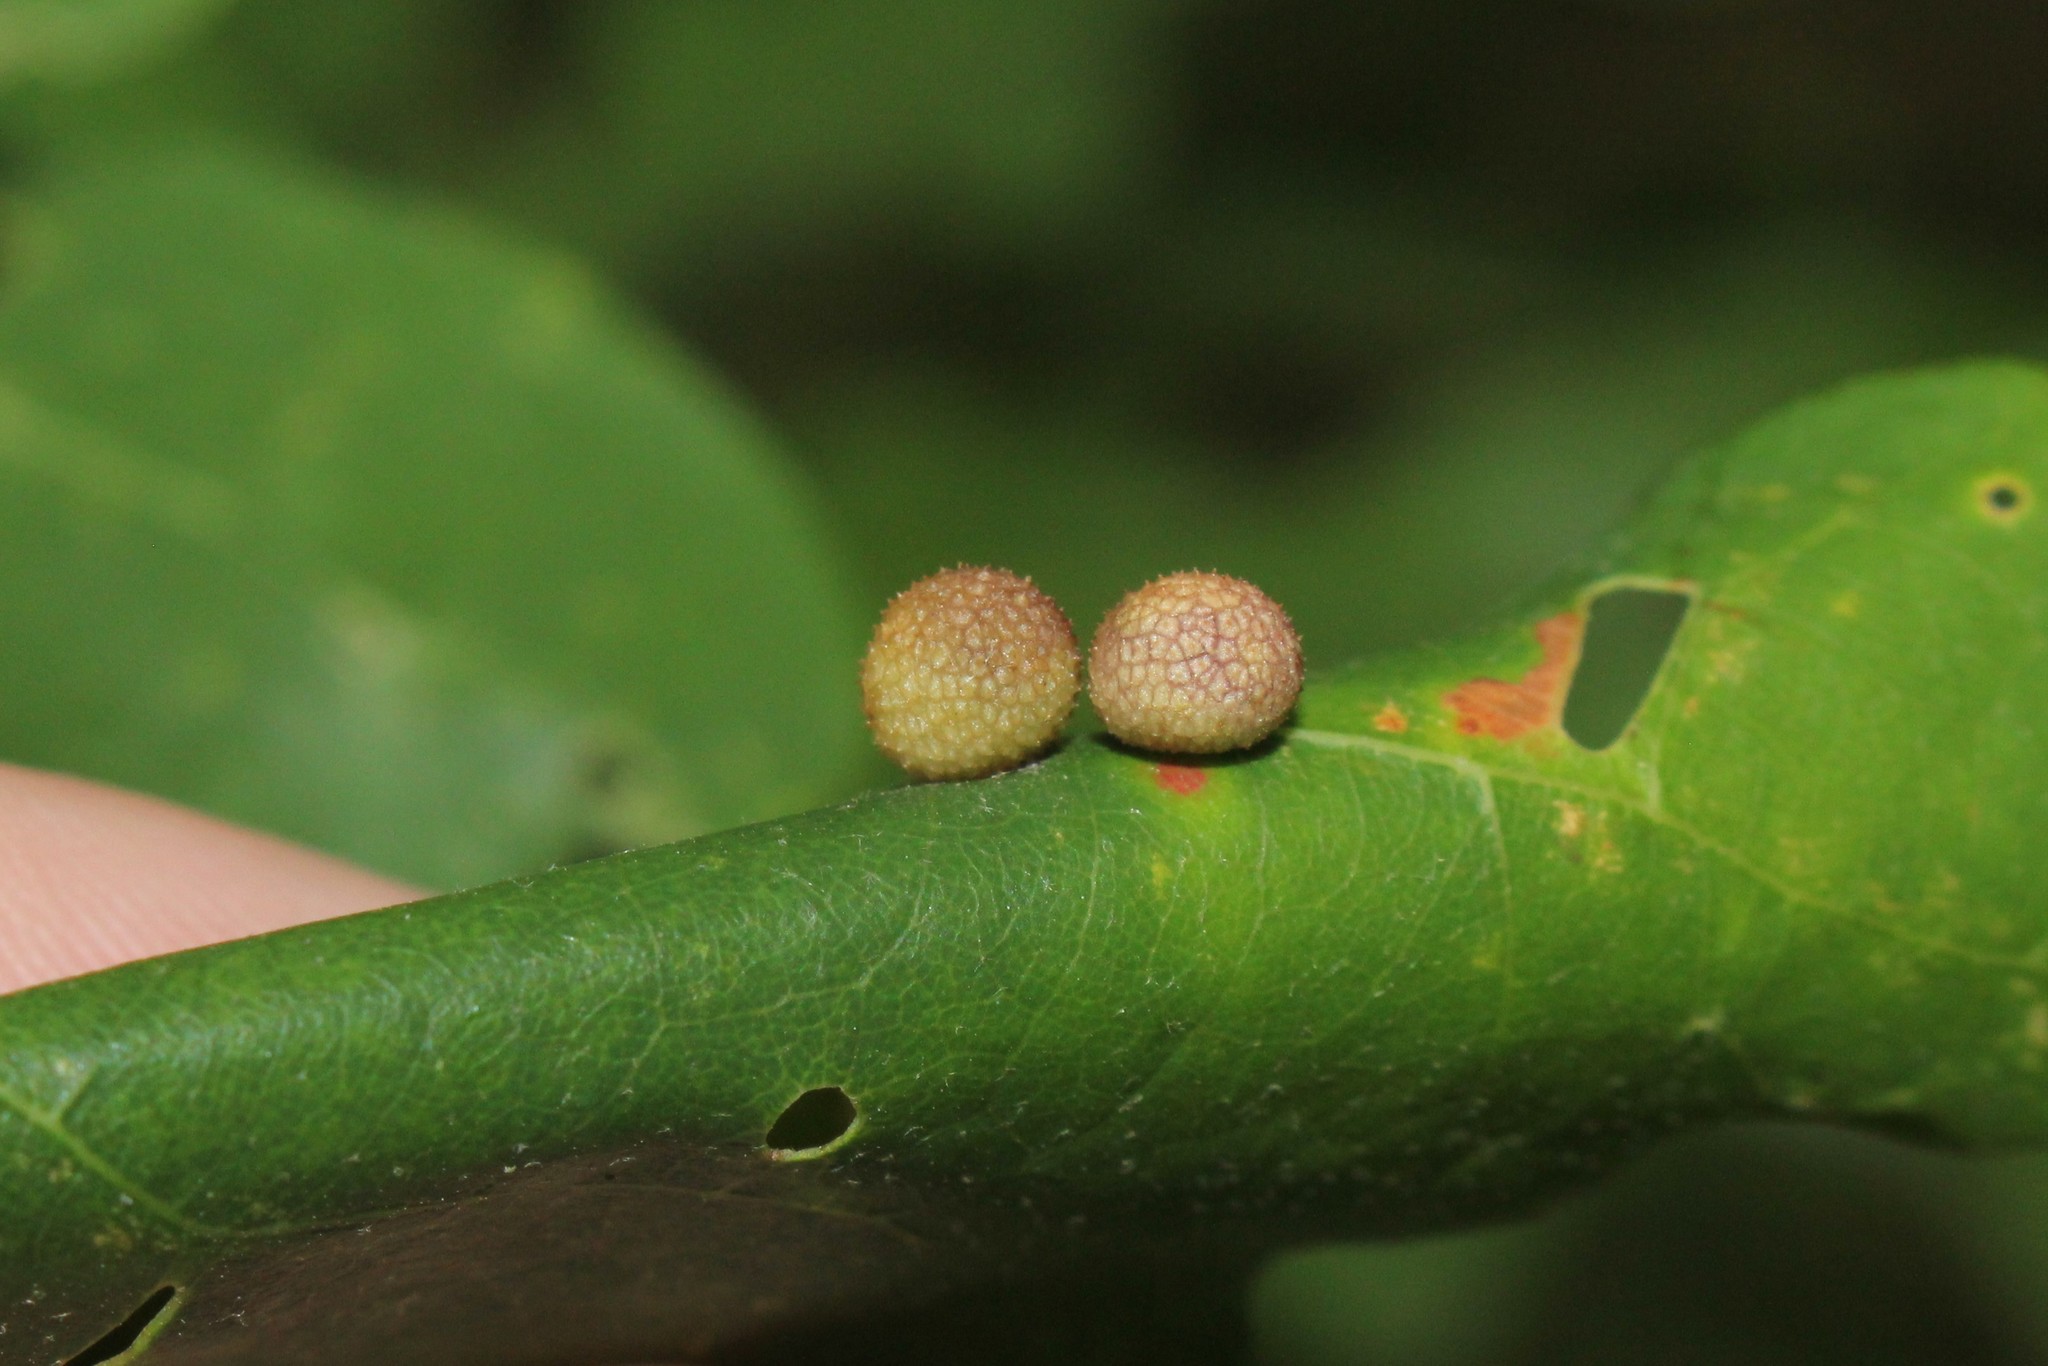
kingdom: Animalia
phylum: Arthropoda
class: Insecta
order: Hymenoptera
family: Cynipidae
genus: Acraspis
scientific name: Acraspis quercushirta
